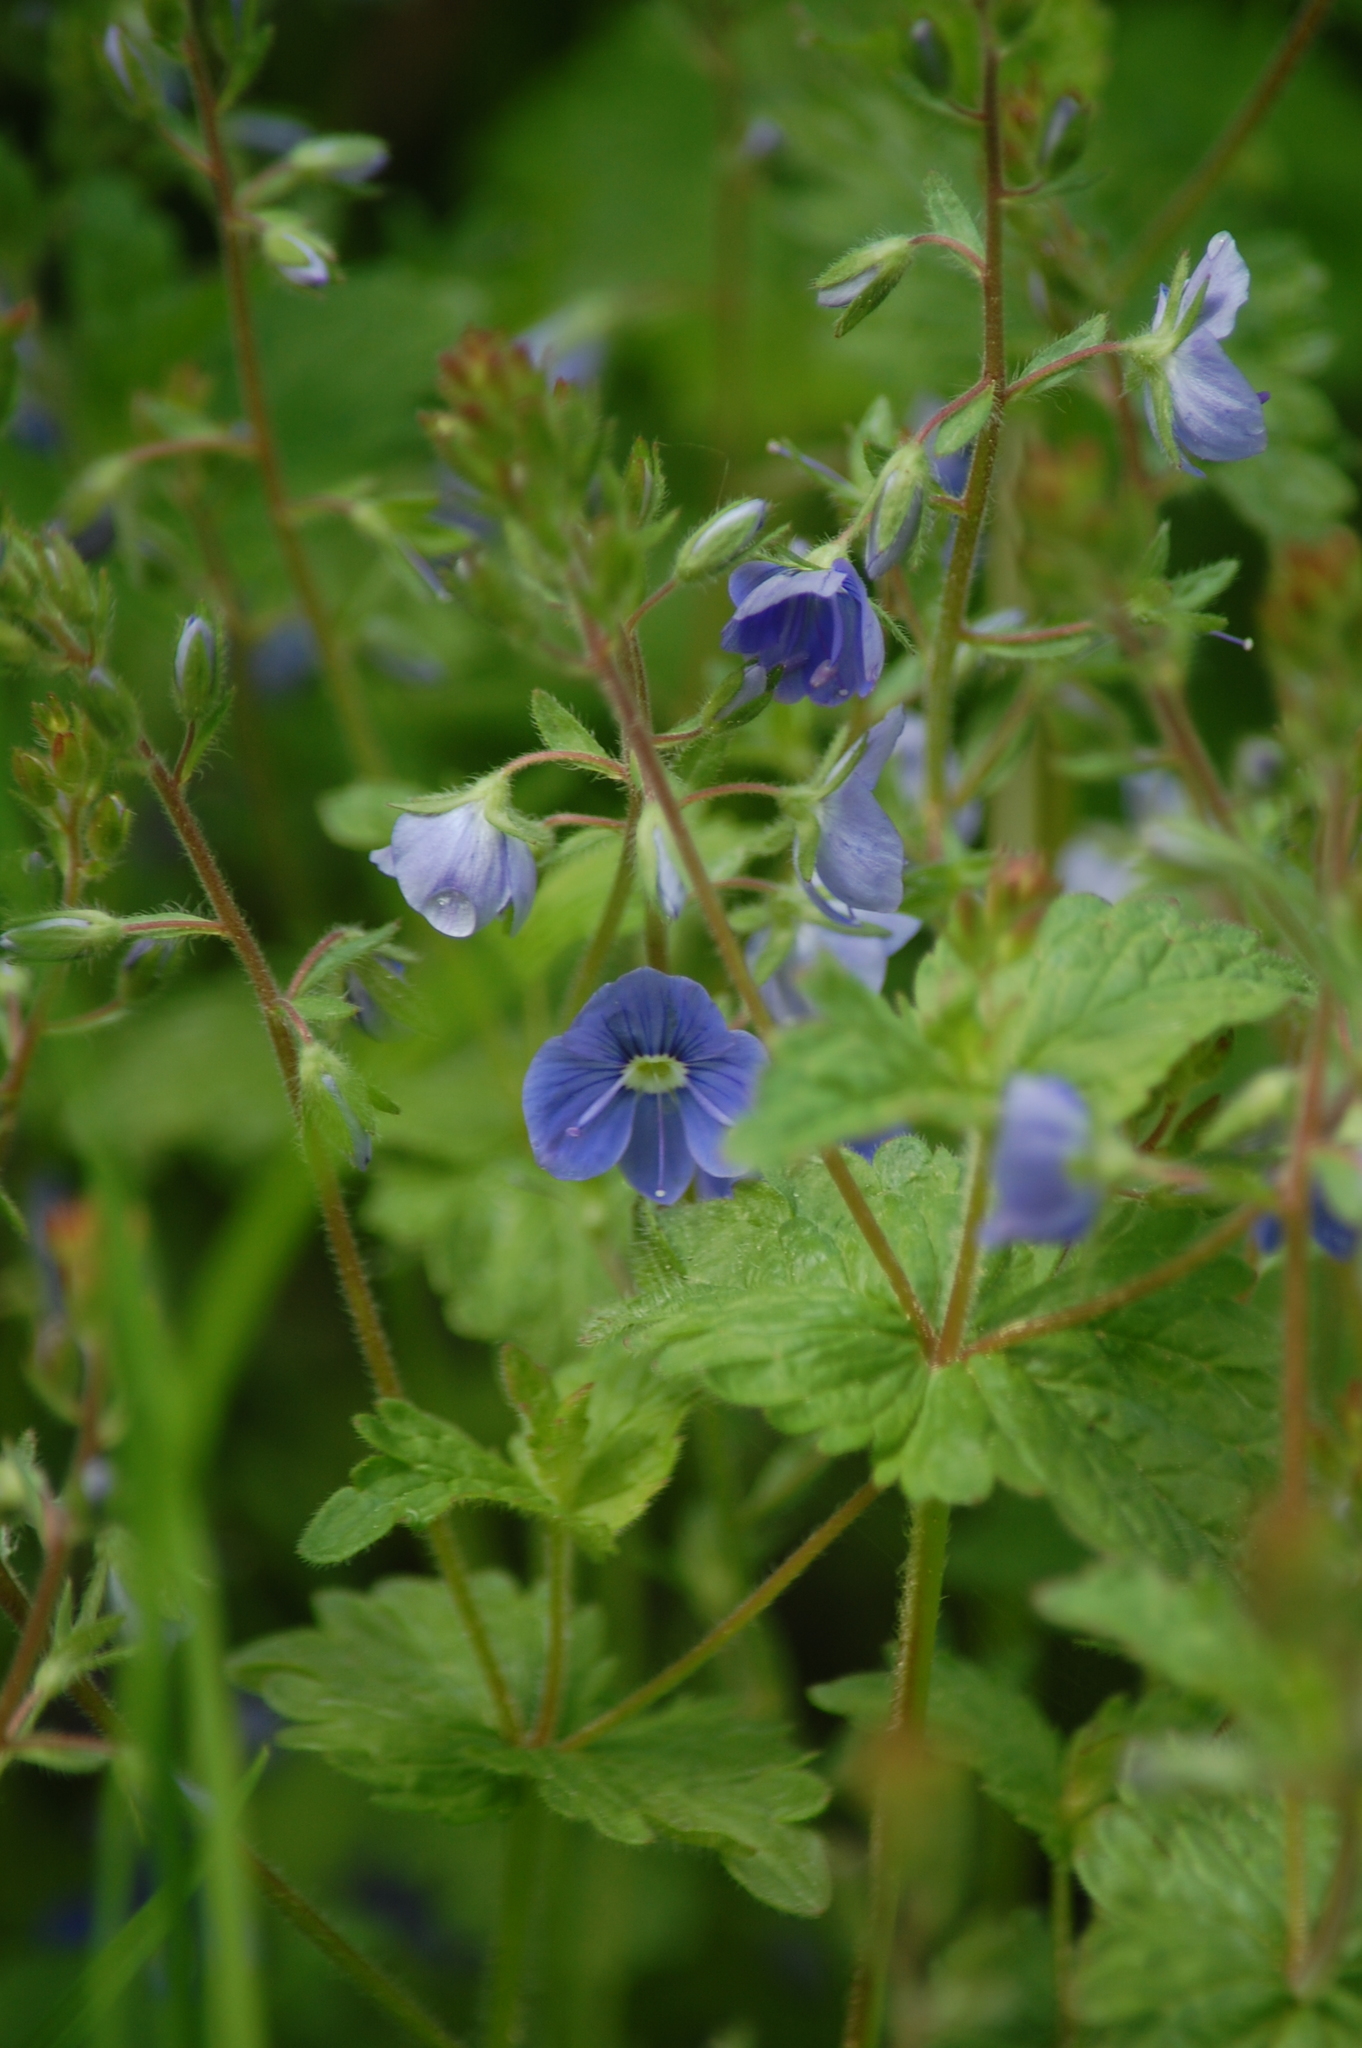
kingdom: Plantae
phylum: Tracheophyta
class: Magnoliopsida
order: Lamiales
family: Plantaginaceae
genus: Veronica
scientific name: Veronica chamaedrys
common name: Germander speedwell
